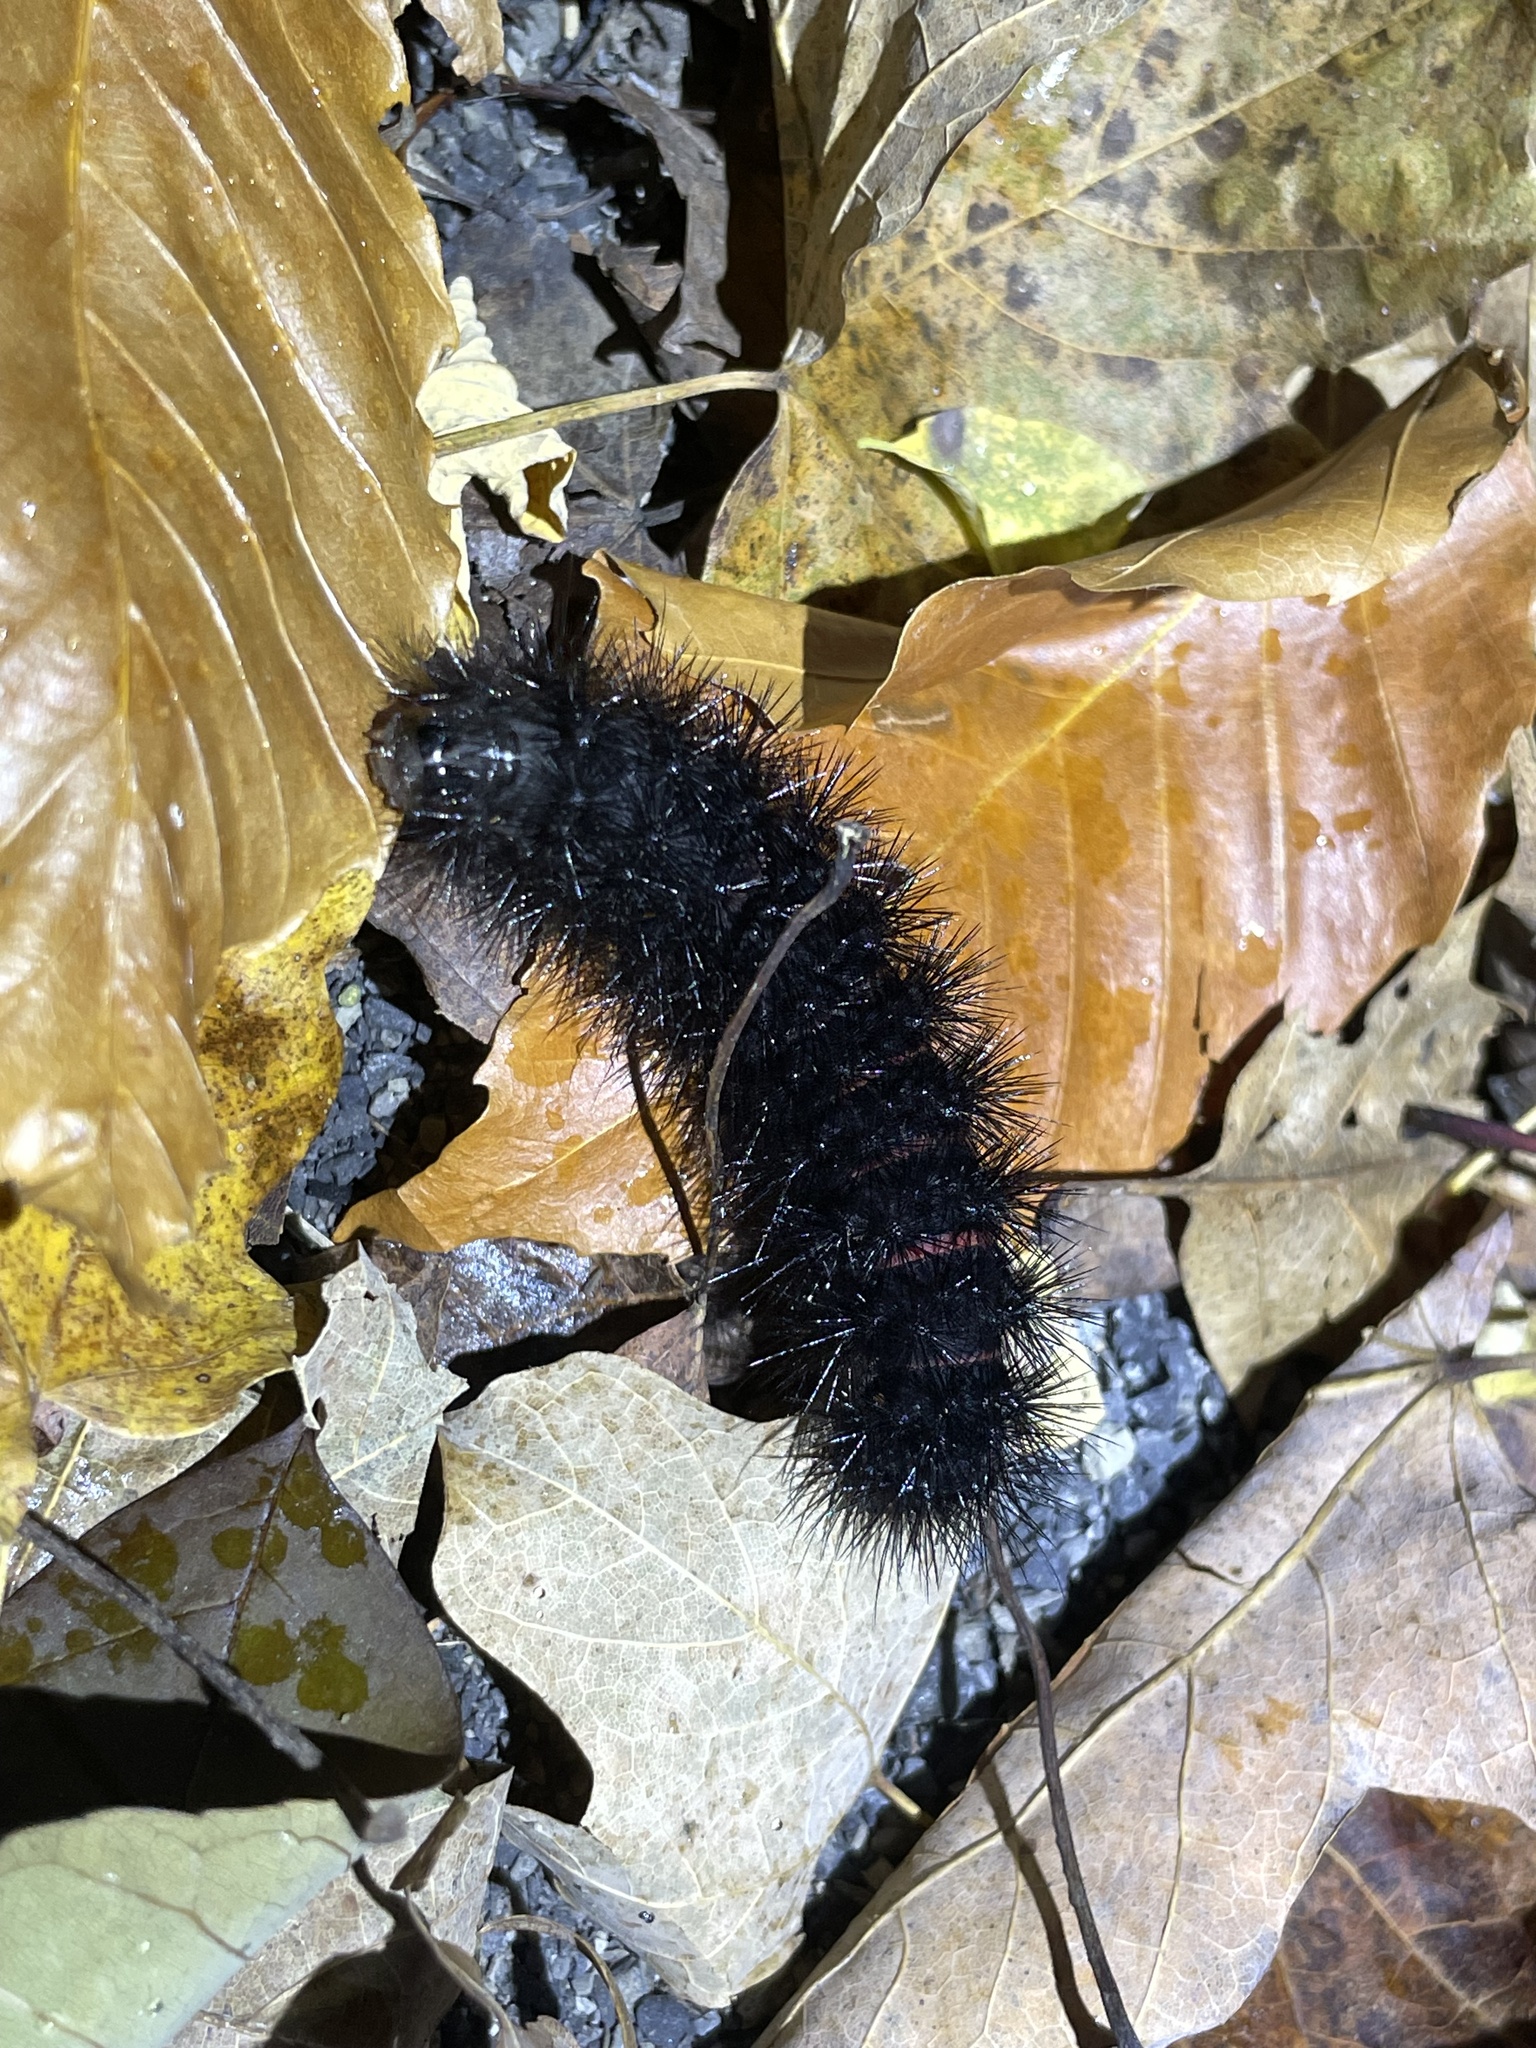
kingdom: Animalia
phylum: Arthropoda
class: Insecta
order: Lepidoptera
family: Erebidae
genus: Hypercompe
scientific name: Hypercompe scribonia
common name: Giant leopard moth
